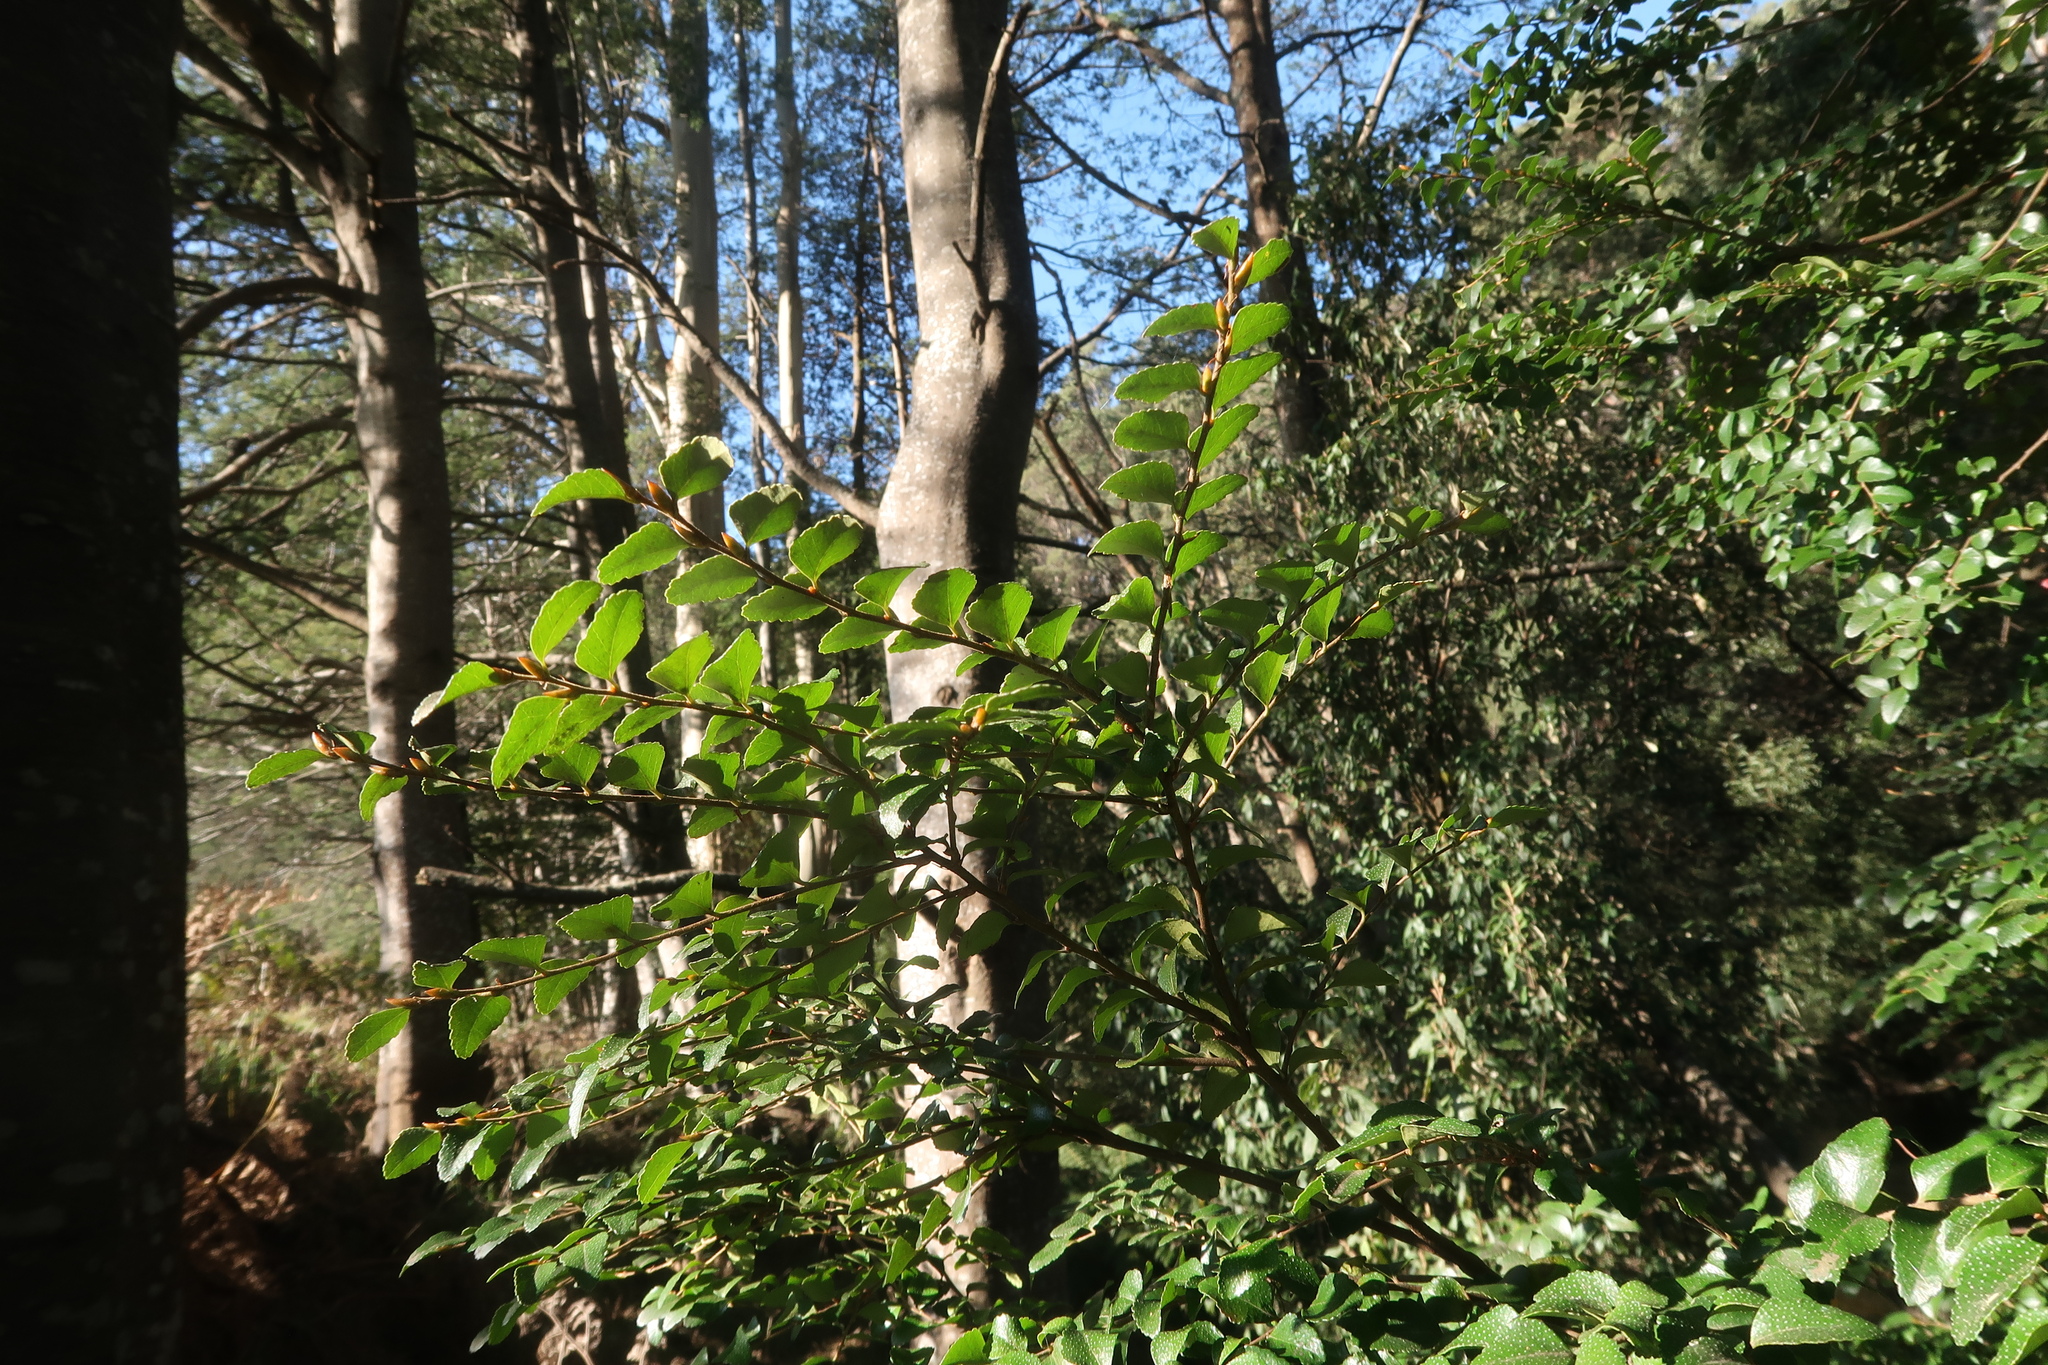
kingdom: Plantae
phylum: Tracheophyta
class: Magnoliopsida
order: Fagales
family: Nothofagaceae
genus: Nothofagus
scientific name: Nothofagus cunninghamii
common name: Myrtle beech
